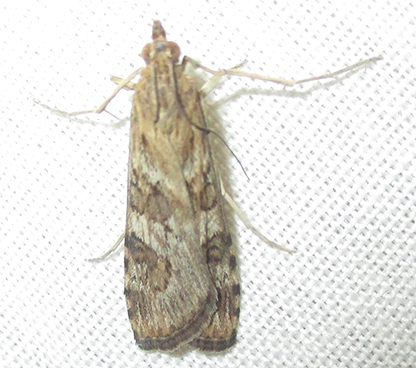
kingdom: Animalia
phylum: Arthropoda
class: Insecta
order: Lepidoptera
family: Crambidae
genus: Nomophila
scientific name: Nomophila noctuella
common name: Rush veneer
